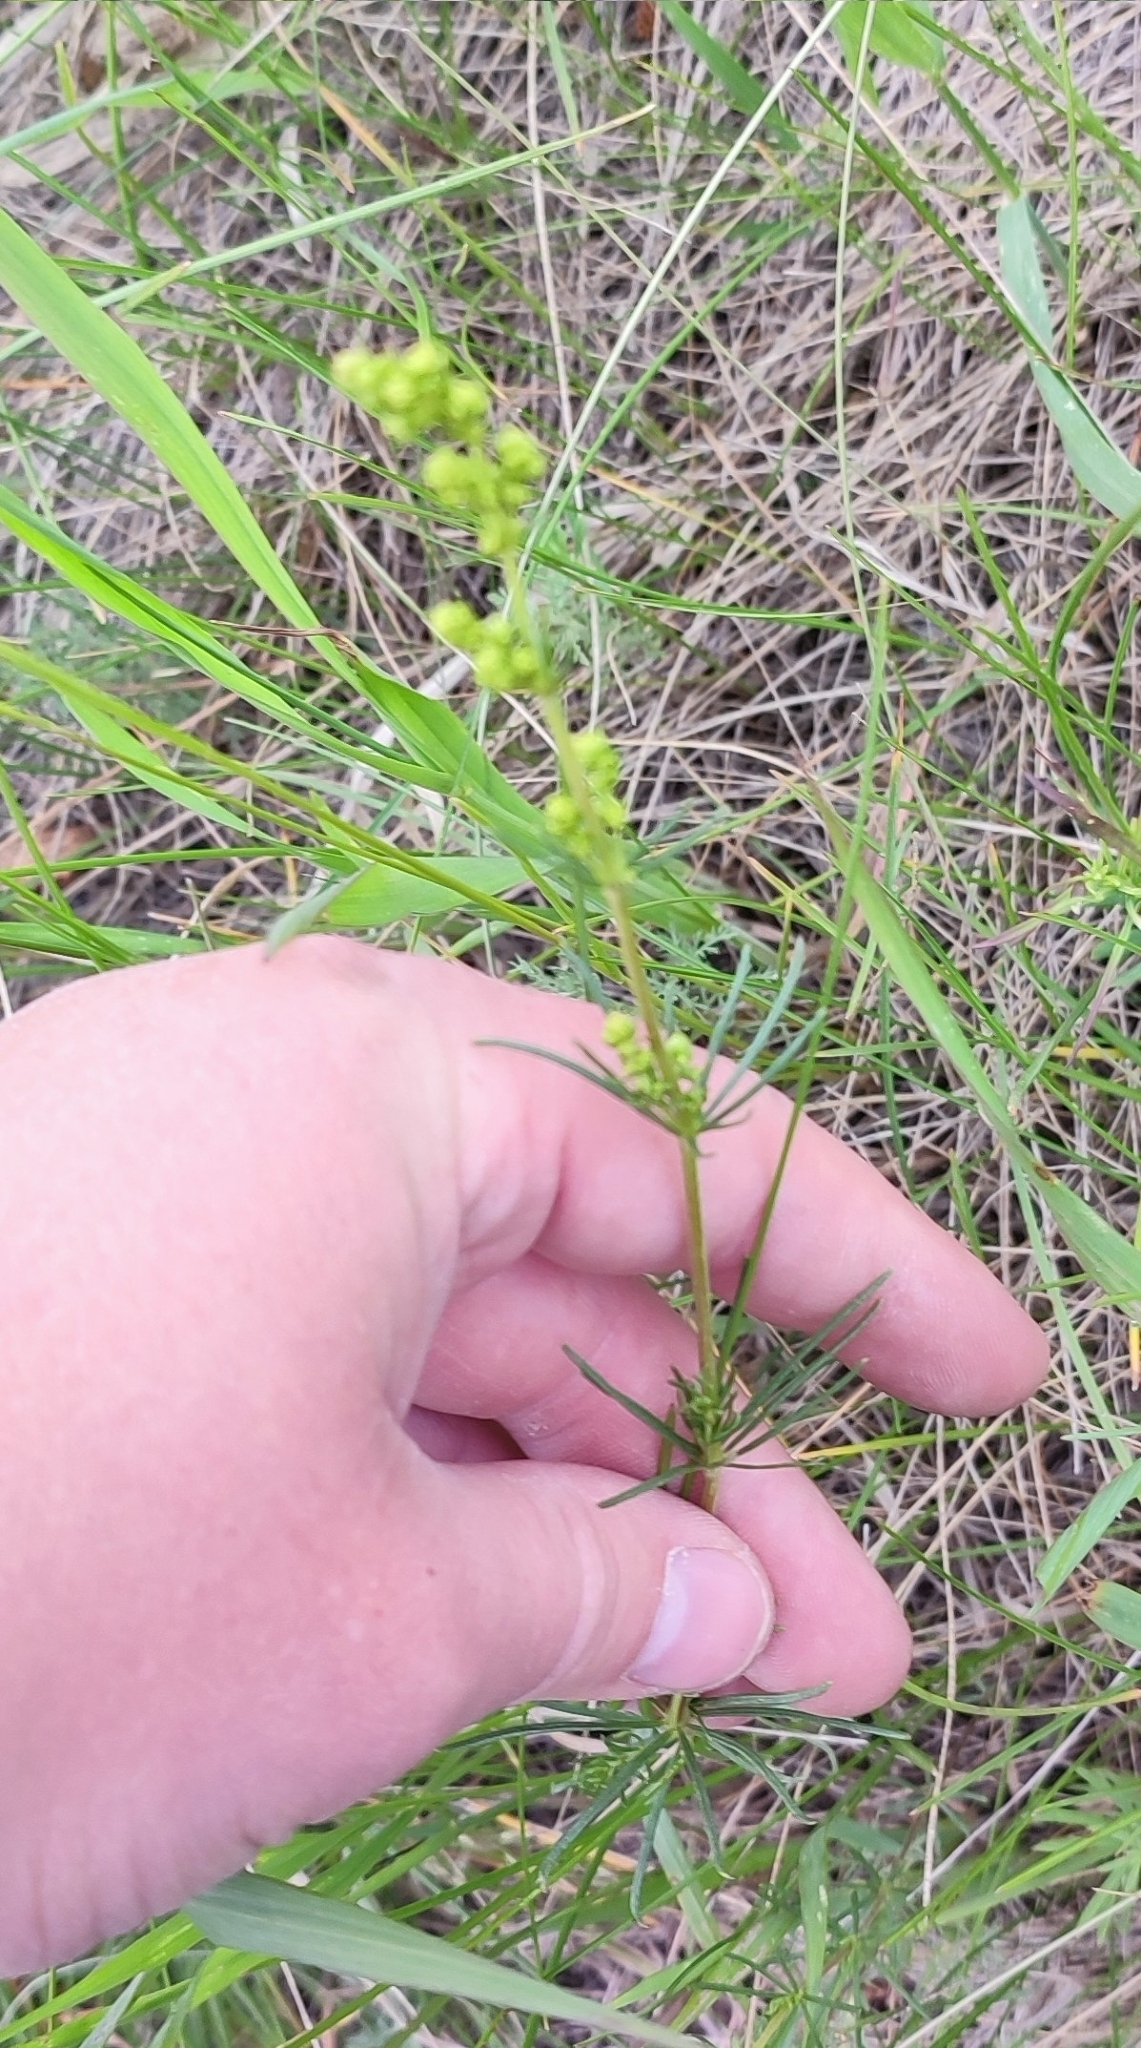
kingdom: Plantae
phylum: Tracheophyta
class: Magnoliopsida
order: Gentianales
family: Rubiaceae
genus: Galium
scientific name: Galium verum
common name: Lady's bedstraw
